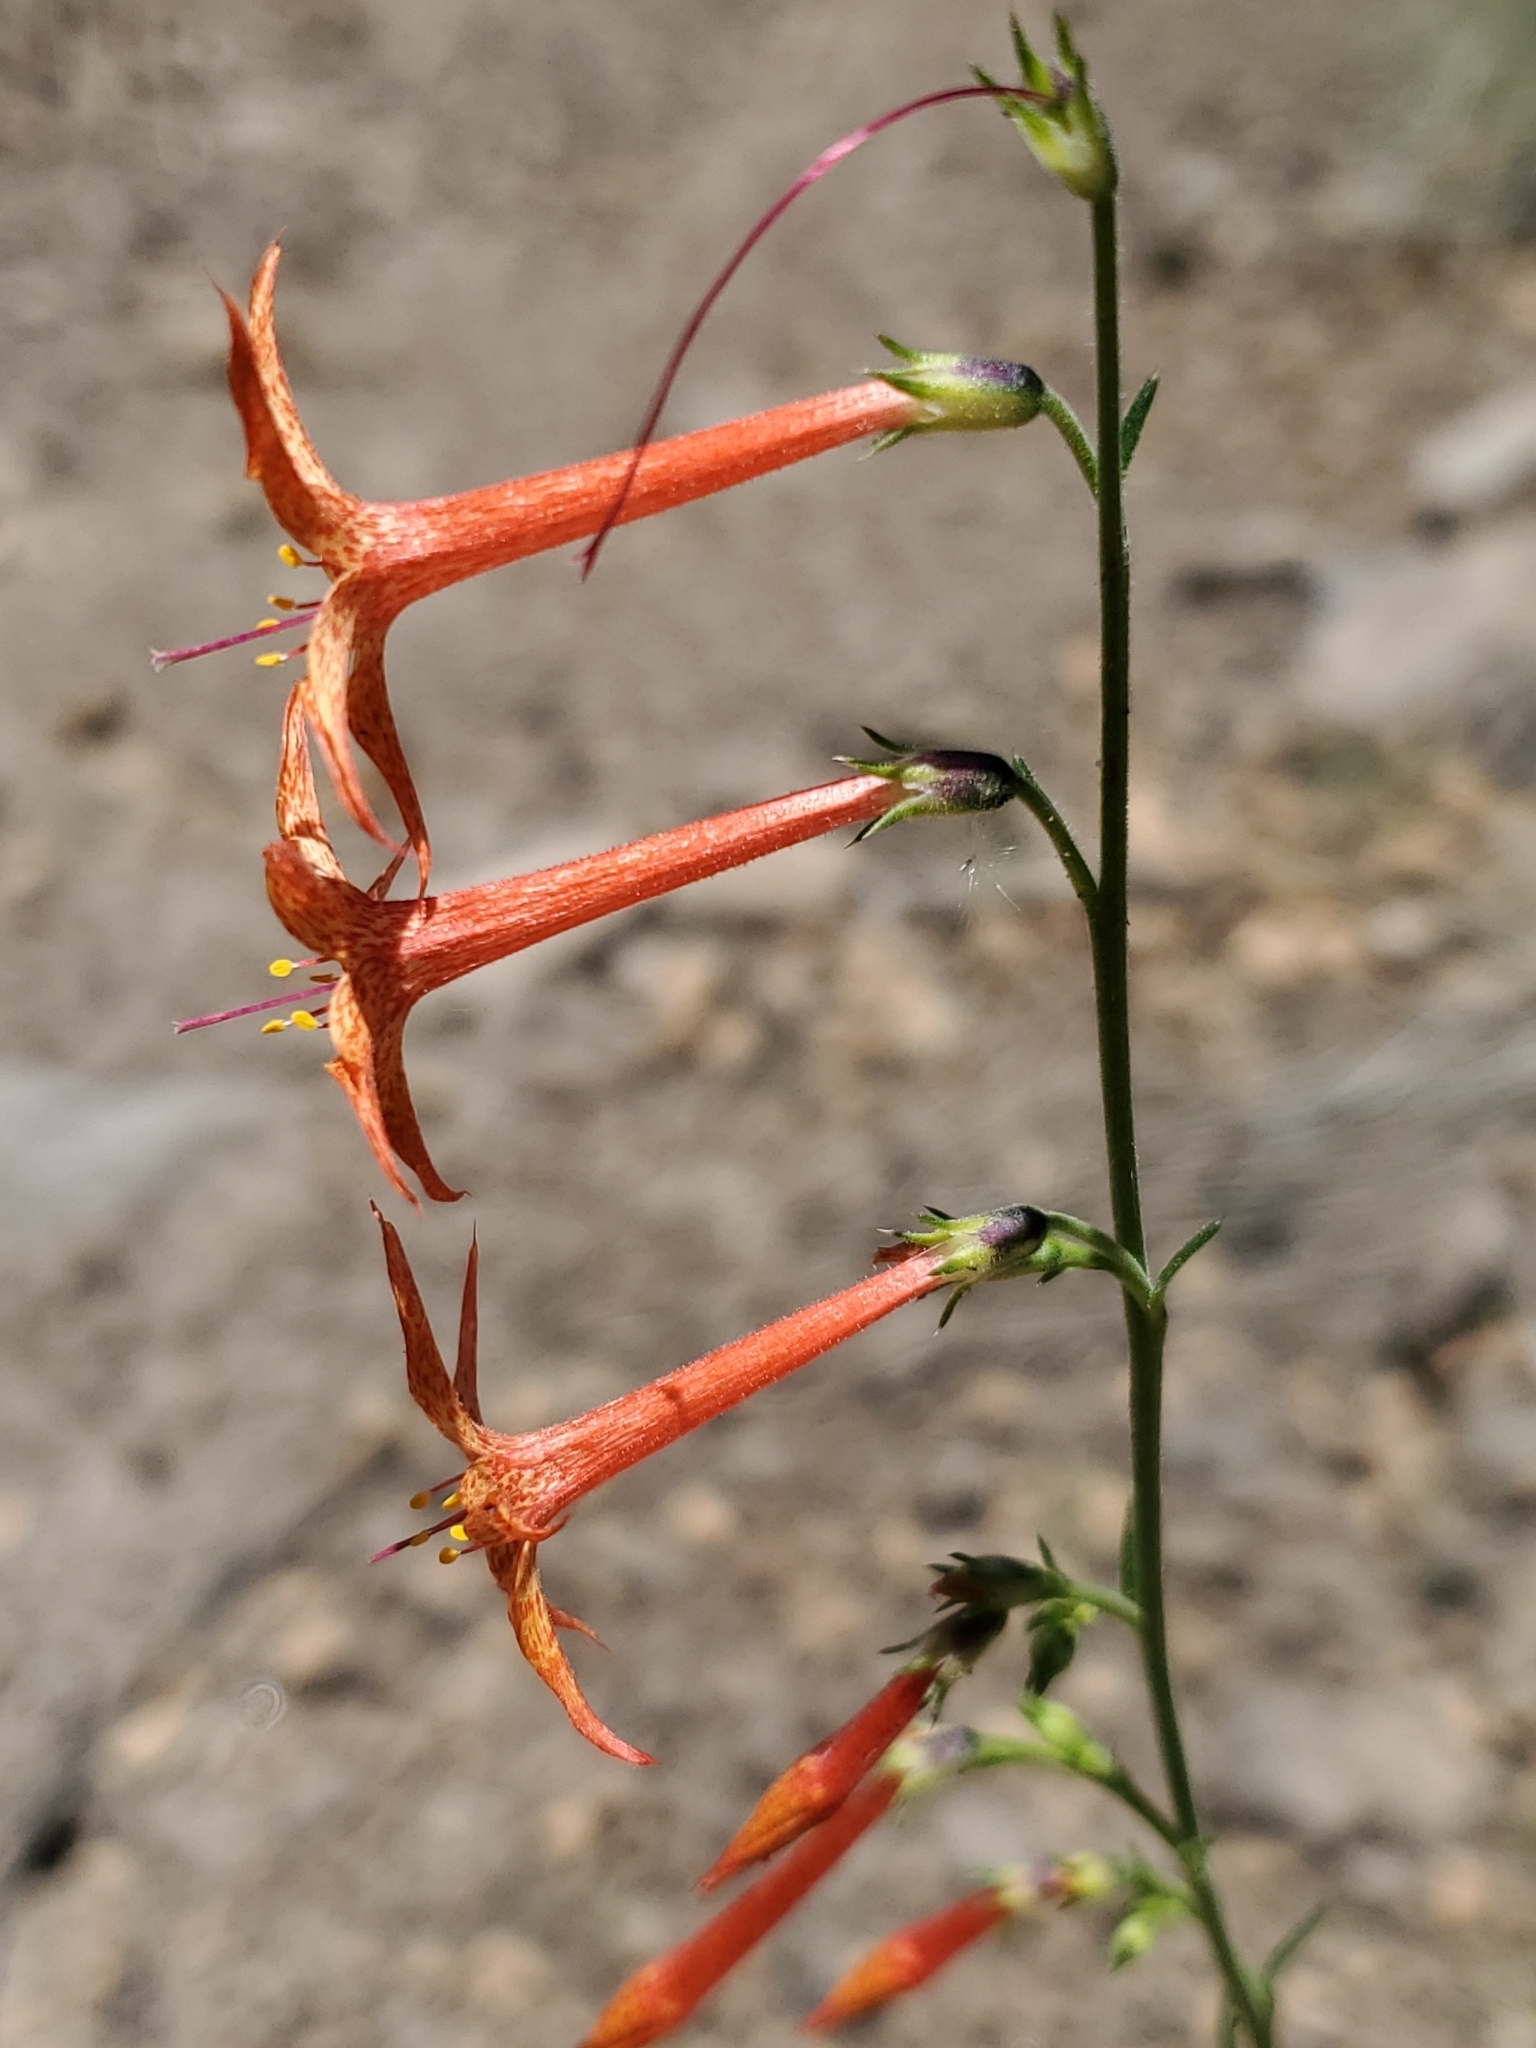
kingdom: Plantae
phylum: Tracheophyta
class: Magnoliopsida
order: Ericales
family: Polemoniaceae
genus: Ipomopsis
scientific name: Ipomopsis aggregata
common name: Scarlet gilia
